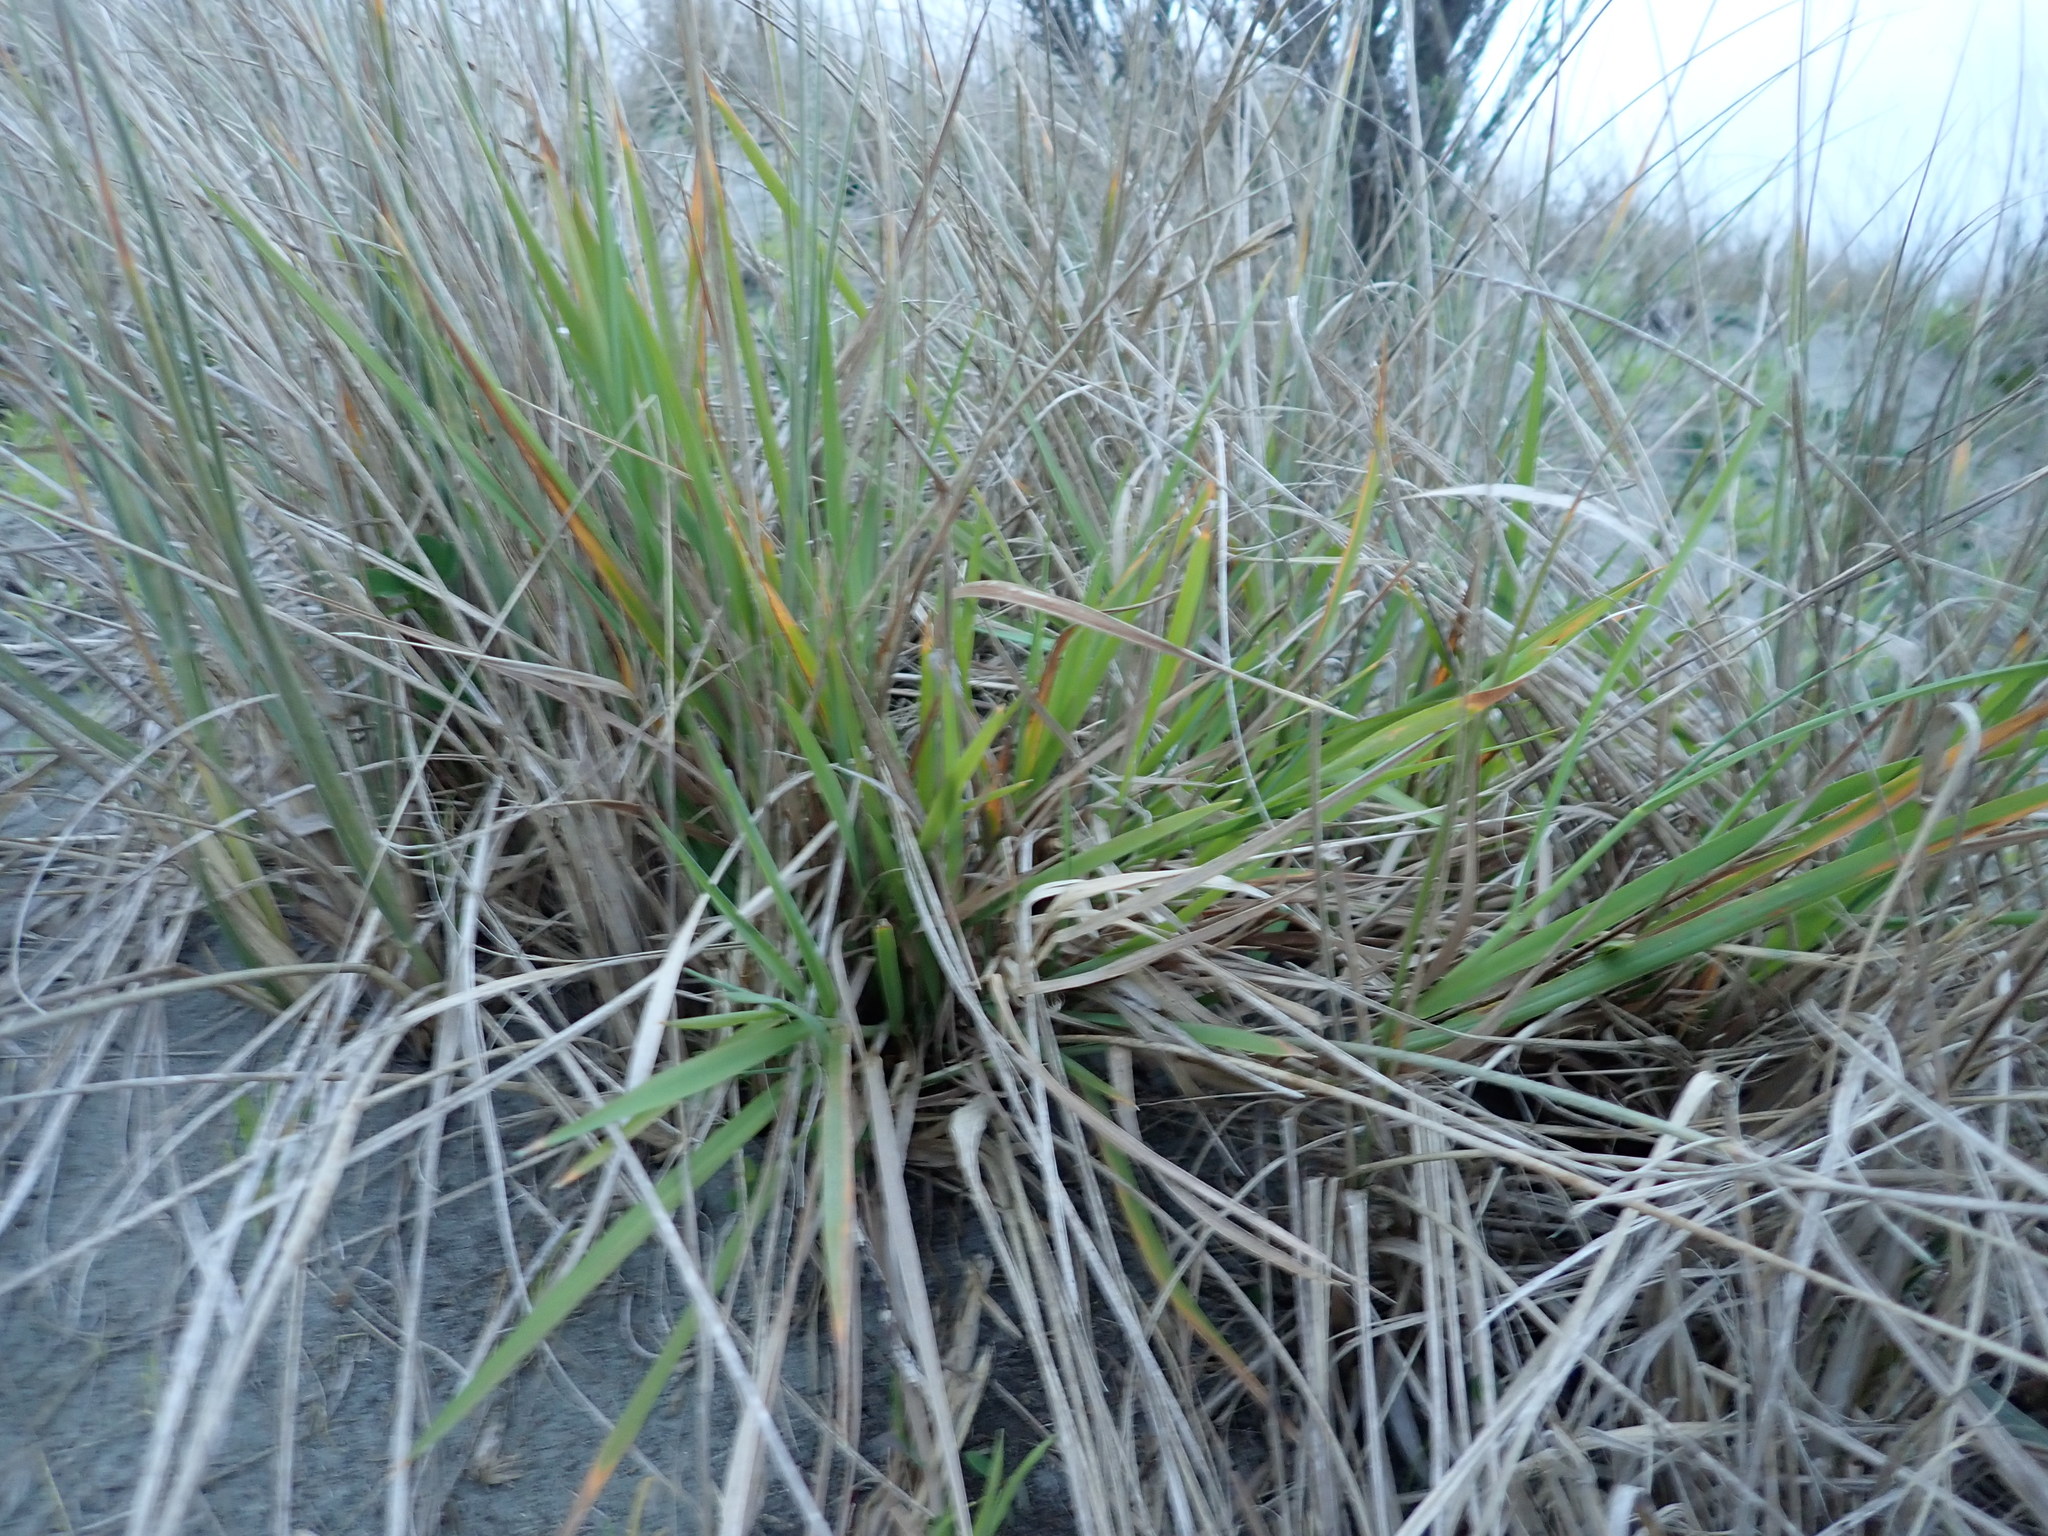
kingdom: Plantae
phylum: Tracheophyta
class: Liliopsida
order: Poales
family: Poaceae
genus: Lachnagrostis
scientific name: Lachnagrostis billardierei
